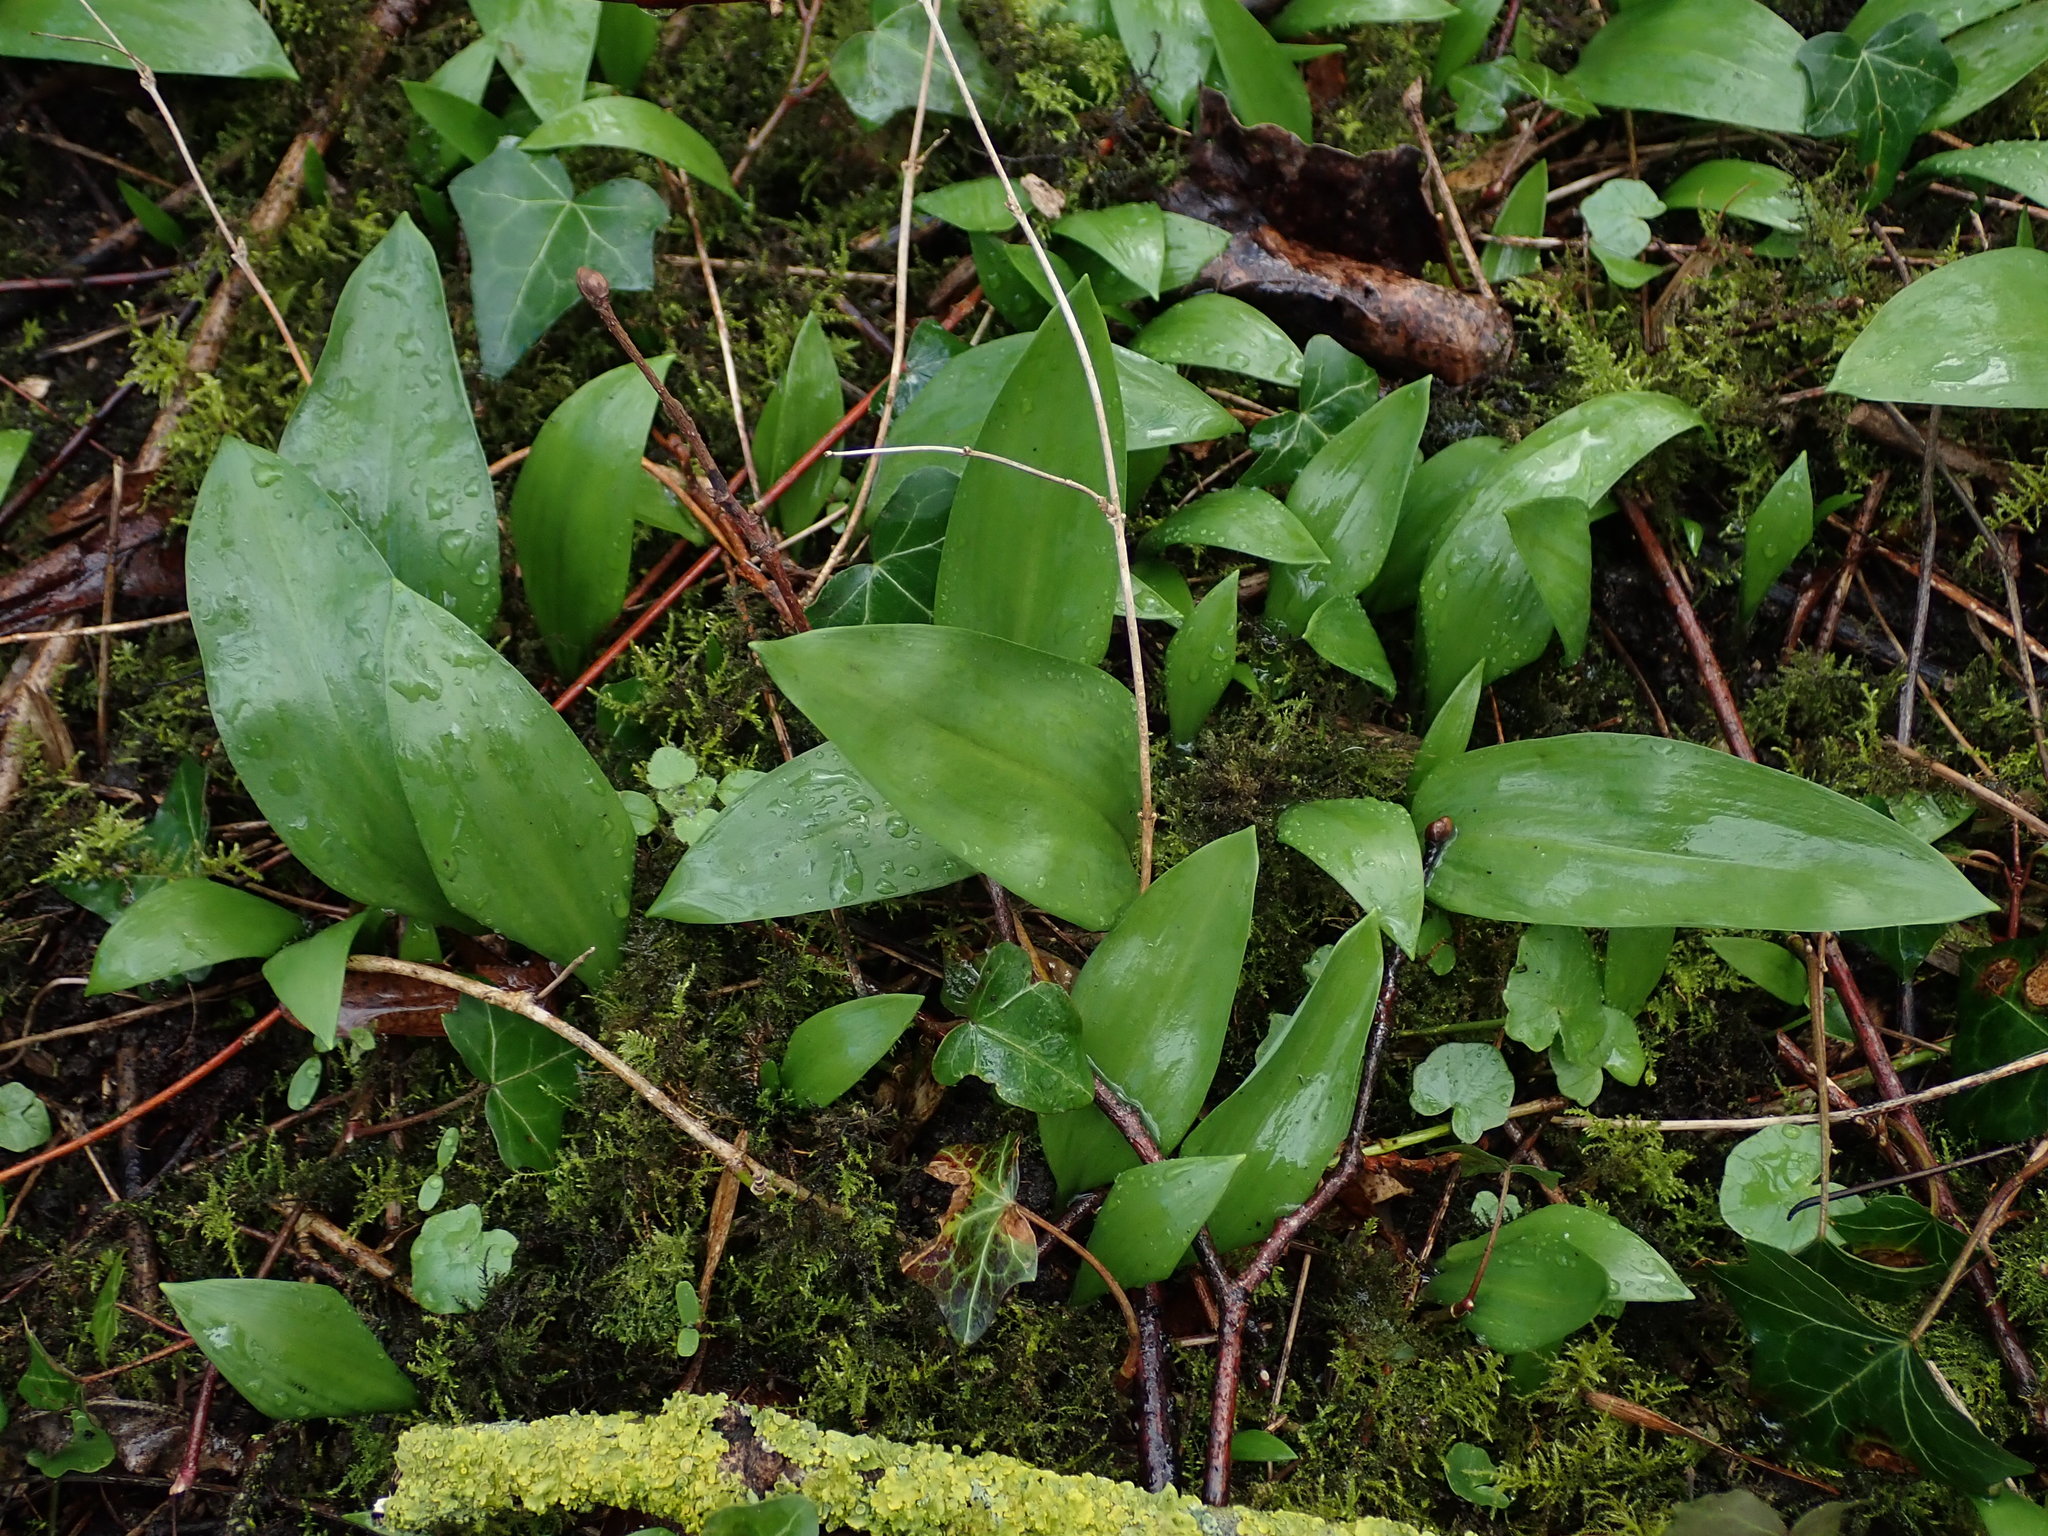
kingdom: Plantae
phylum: Tracheophyta
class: Liliopsida
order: Asparagales
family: Amaryllidaceae
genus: Allium
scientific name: Allium ursinum
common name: Ramsons
